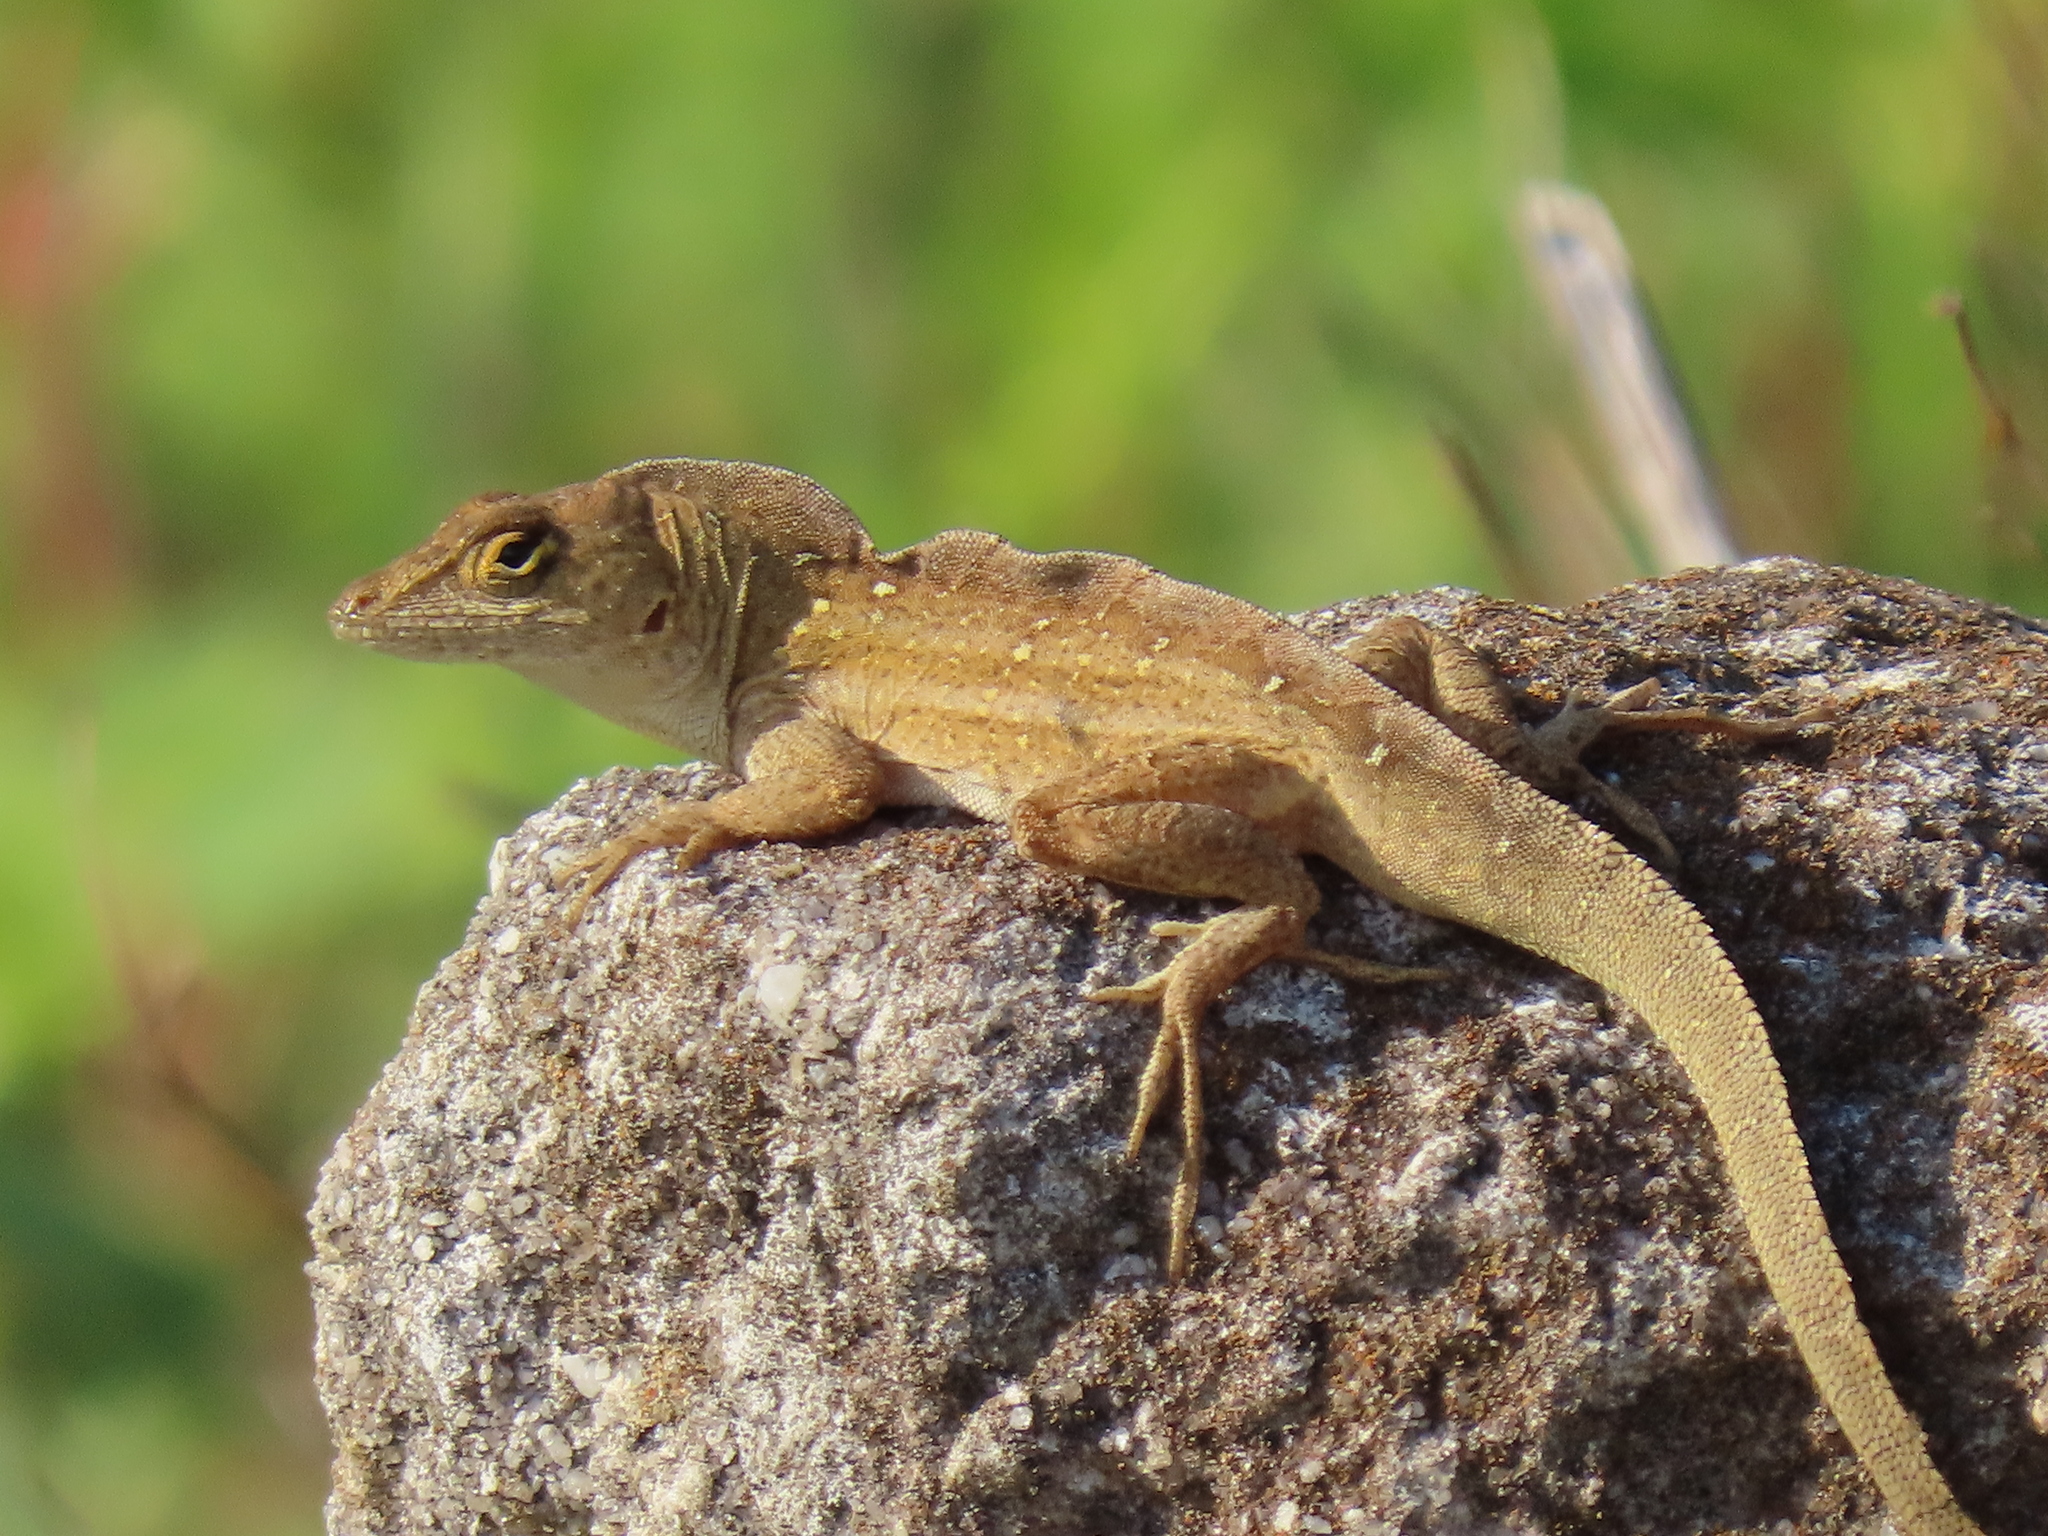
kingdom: Animalia
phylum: Chordata
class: Squamata
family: Dactyloidae
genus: Anolis
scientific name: Anolis sagrei
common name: Brown anole
